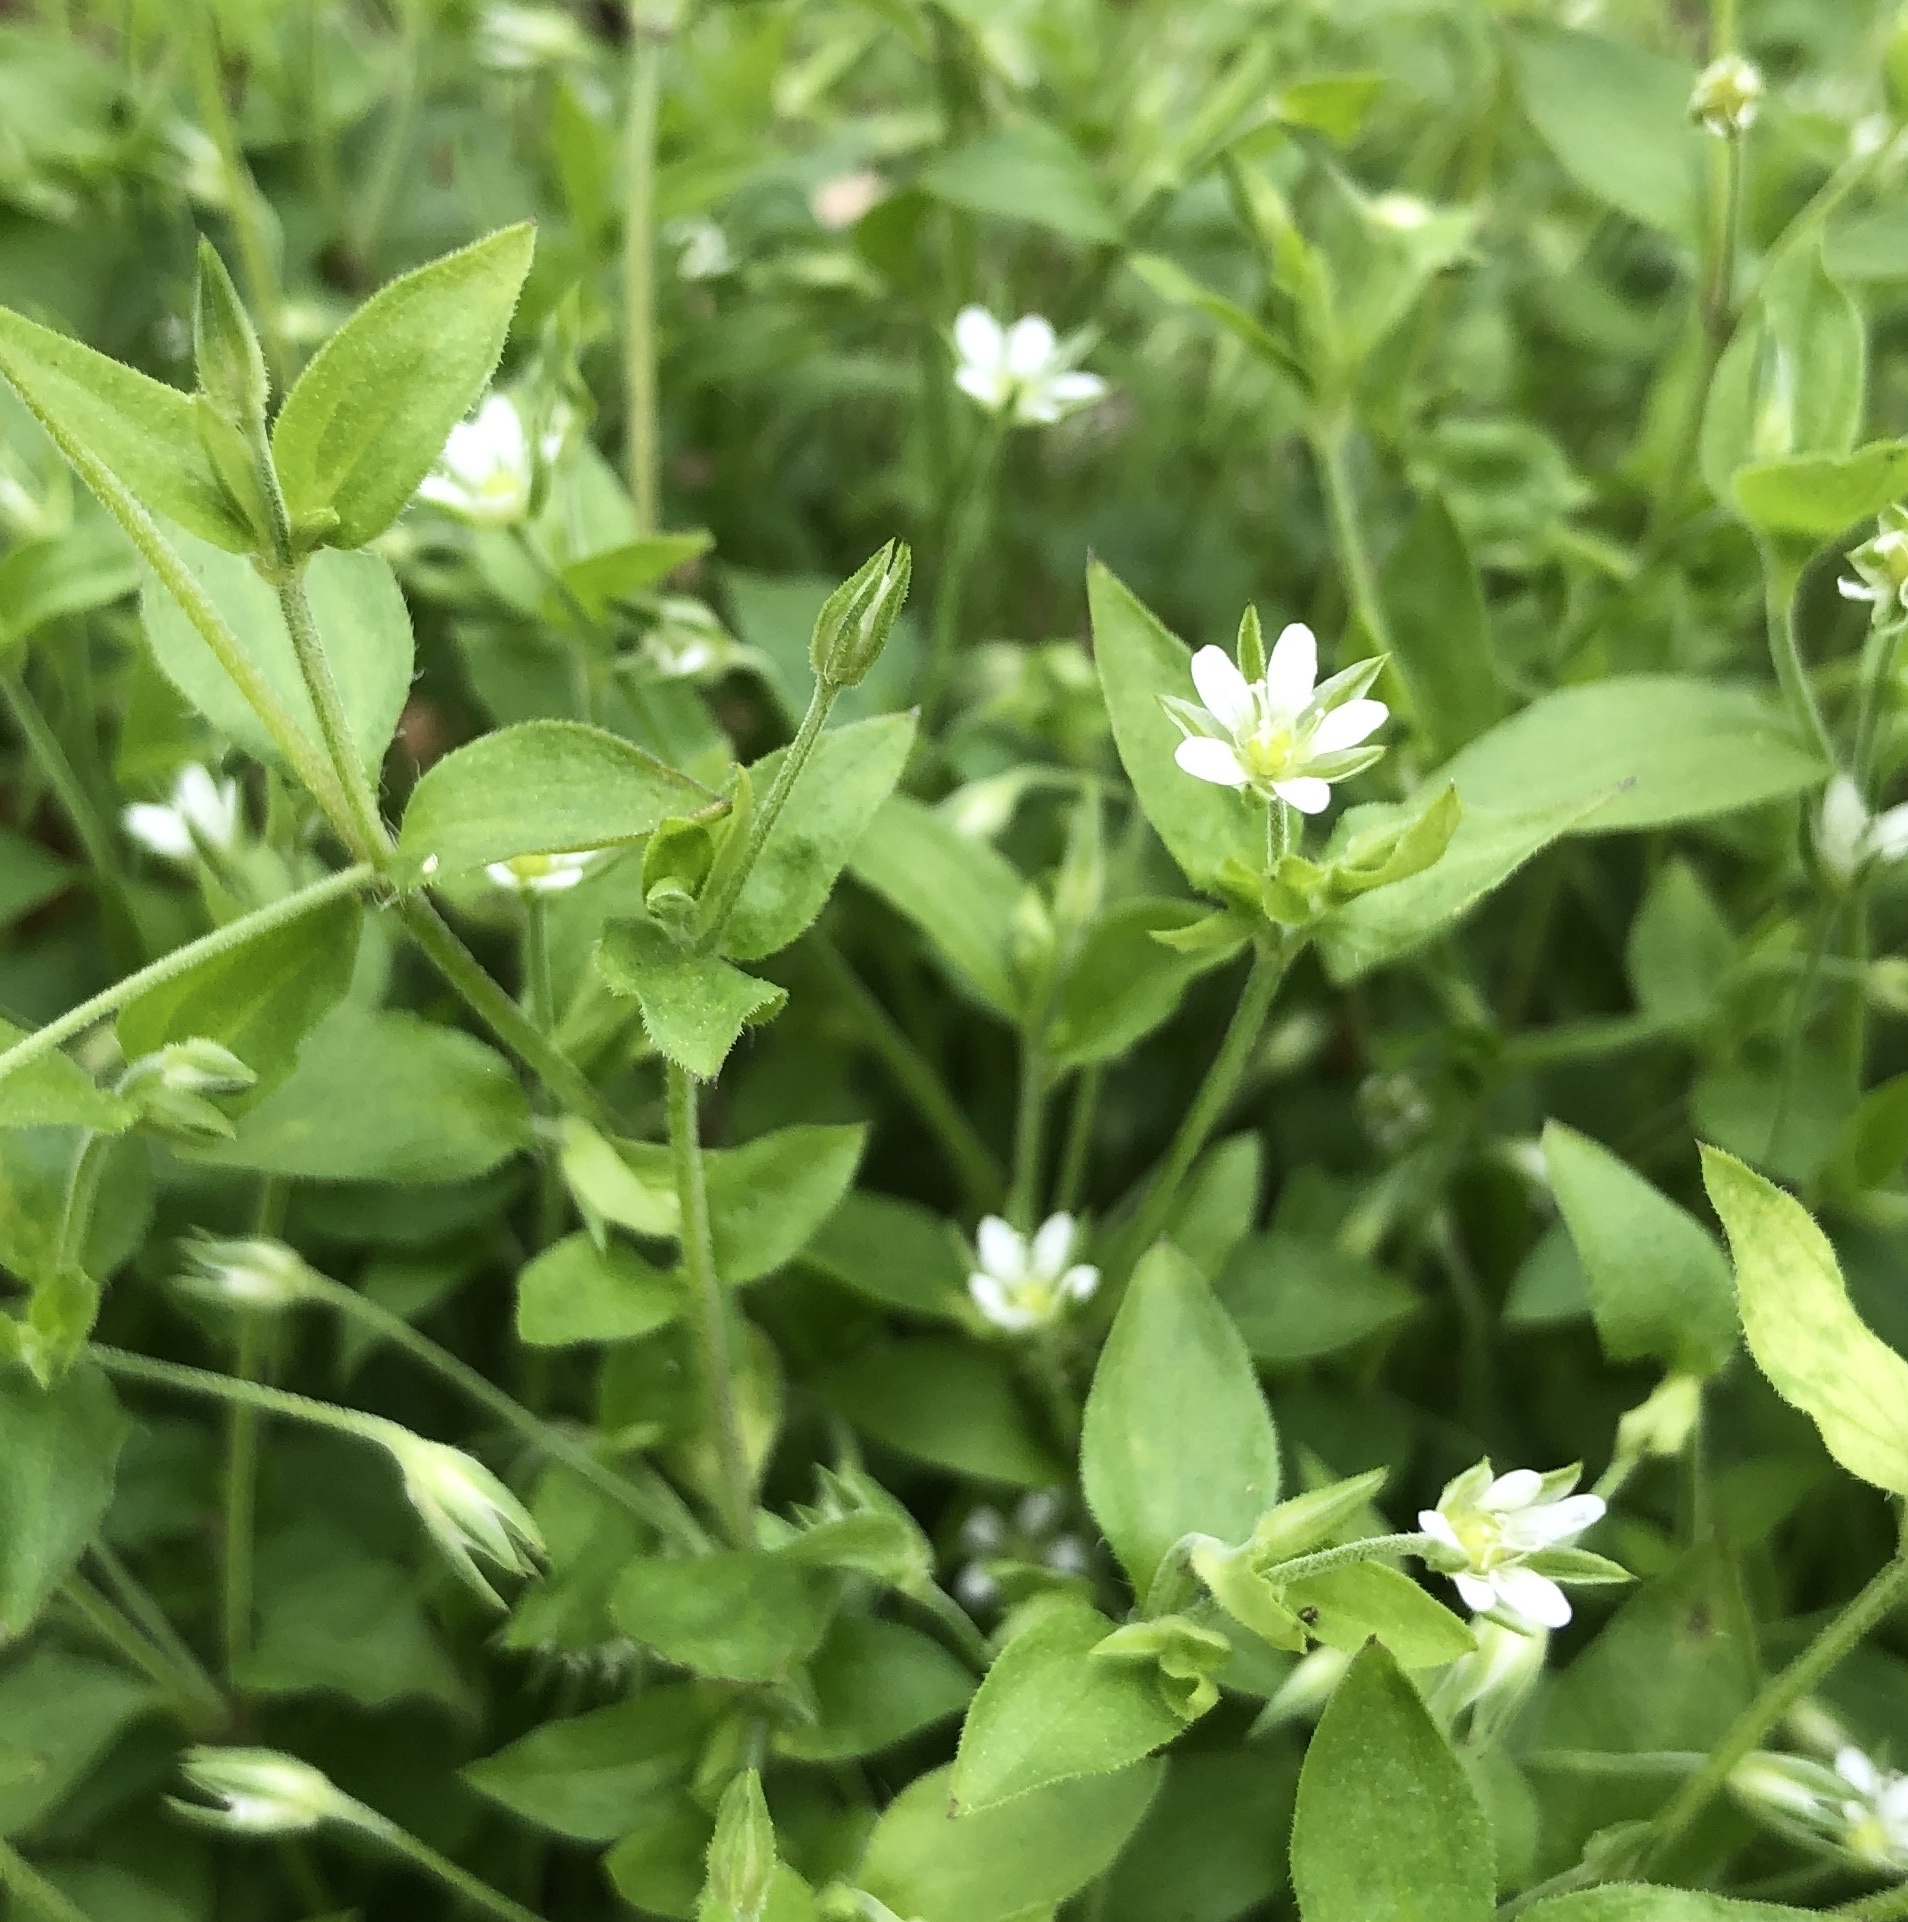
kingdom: Plantae
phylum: Tracheophyta
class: Magnoliopsida
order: Caryophyllales
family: Caryophyllaceae
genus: Moehringia
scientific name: Moehringia trinervia
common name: Three-nerved sandwort
